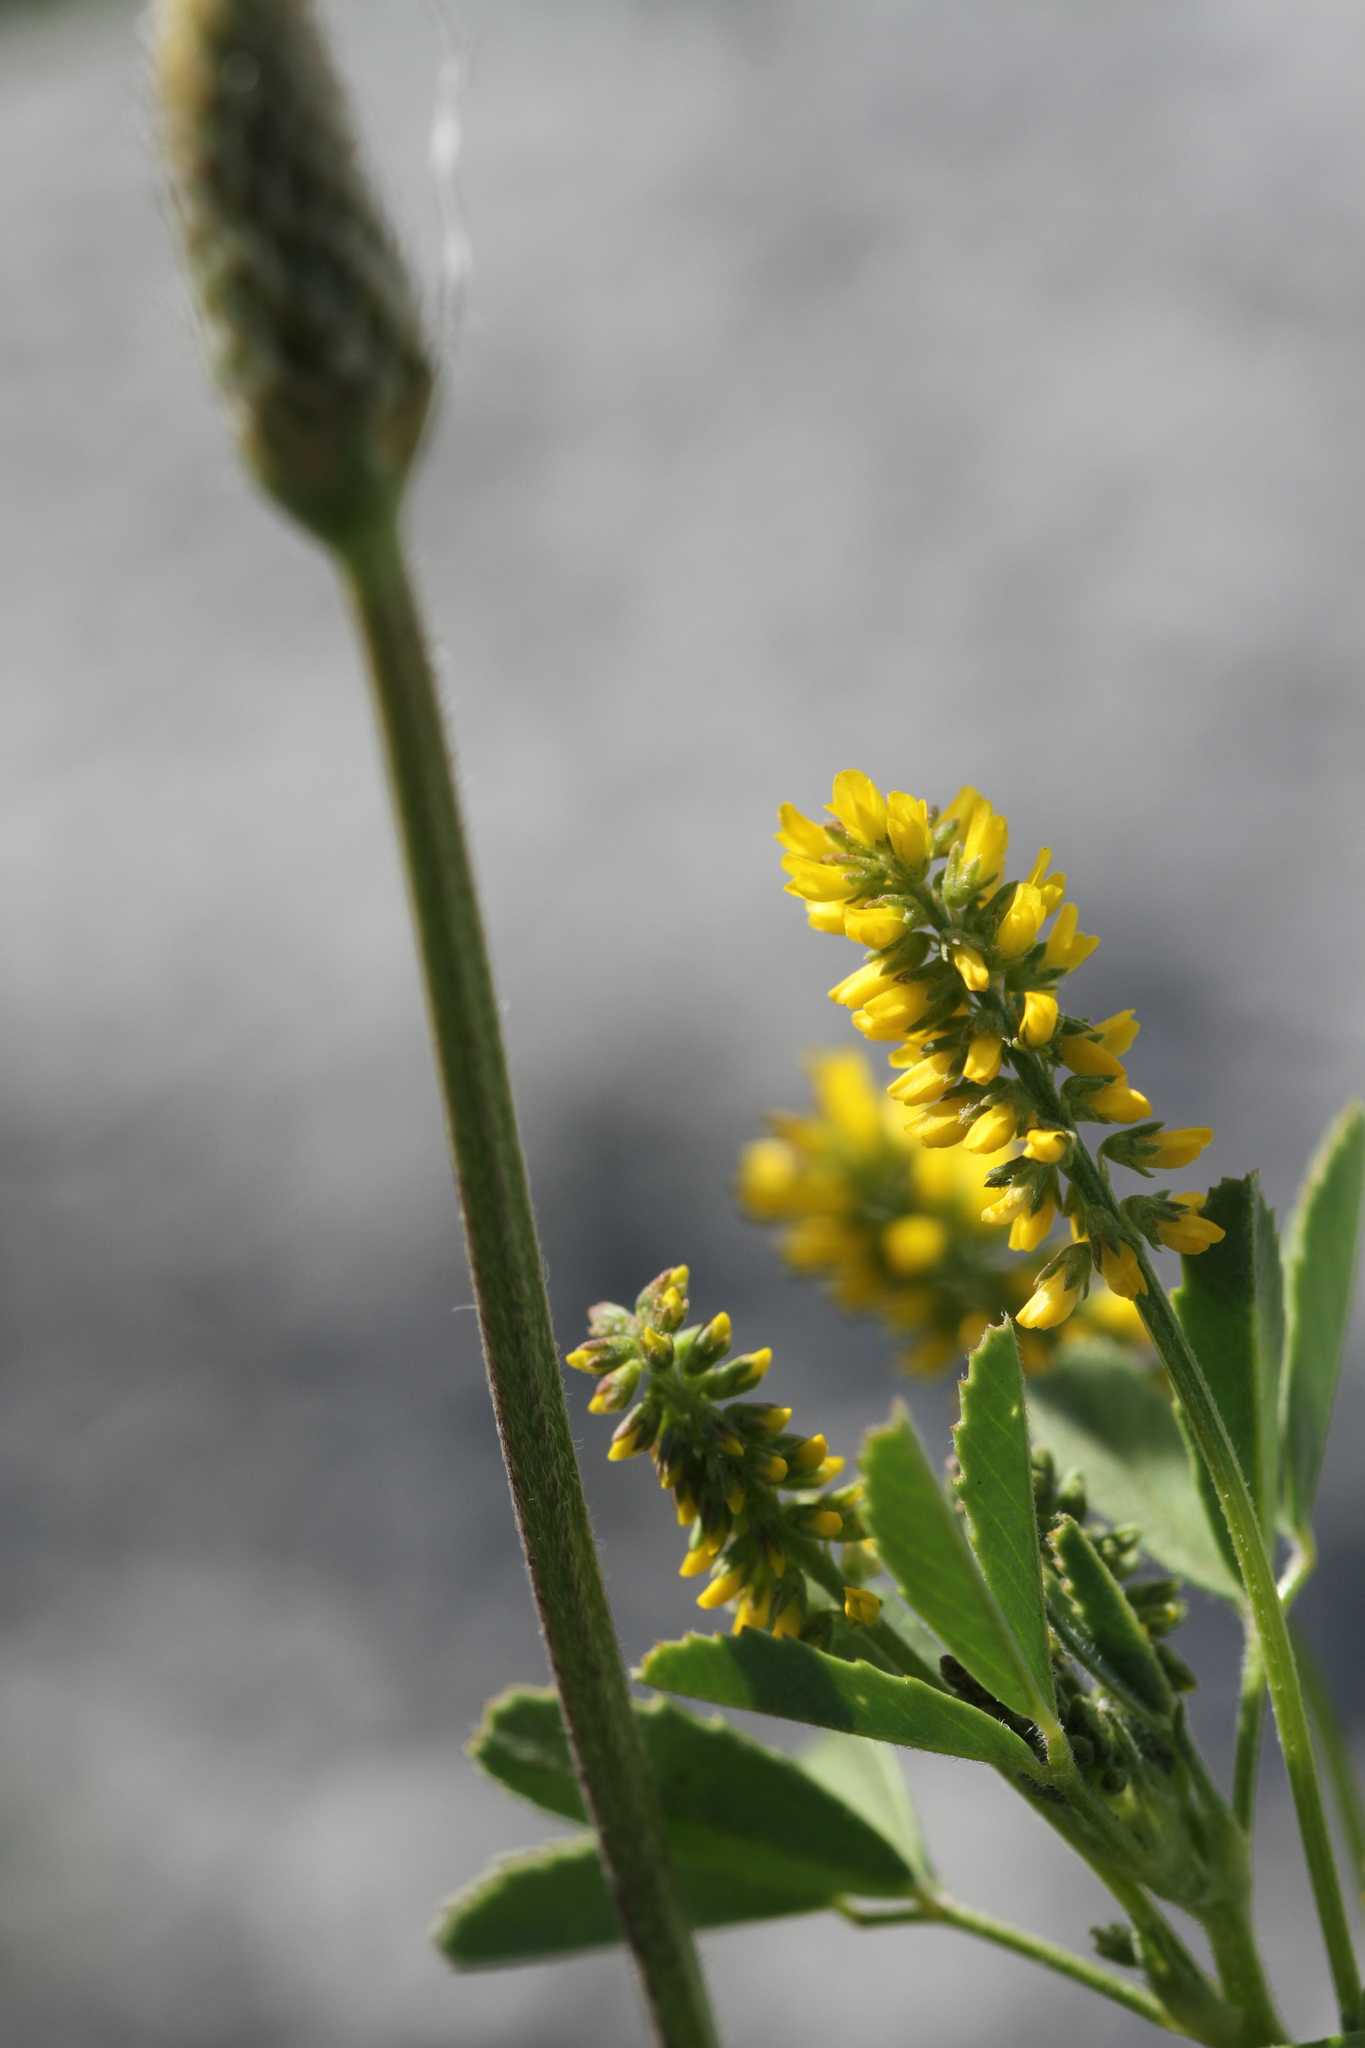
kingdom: Plantae
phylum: Tracheophyta
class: Magnoliopsida
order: Fabales
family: Fabaceae
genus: Melilotus
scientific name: Melilotus indicus
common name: Small melilot
